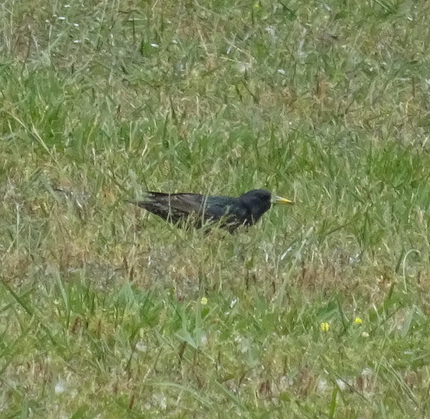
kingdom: Animalia
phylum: Chordata
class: Aves
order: Passeriformes
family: Sturnidae
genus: Sturnus
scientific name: Sturnus vulgaris
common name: Common starling
